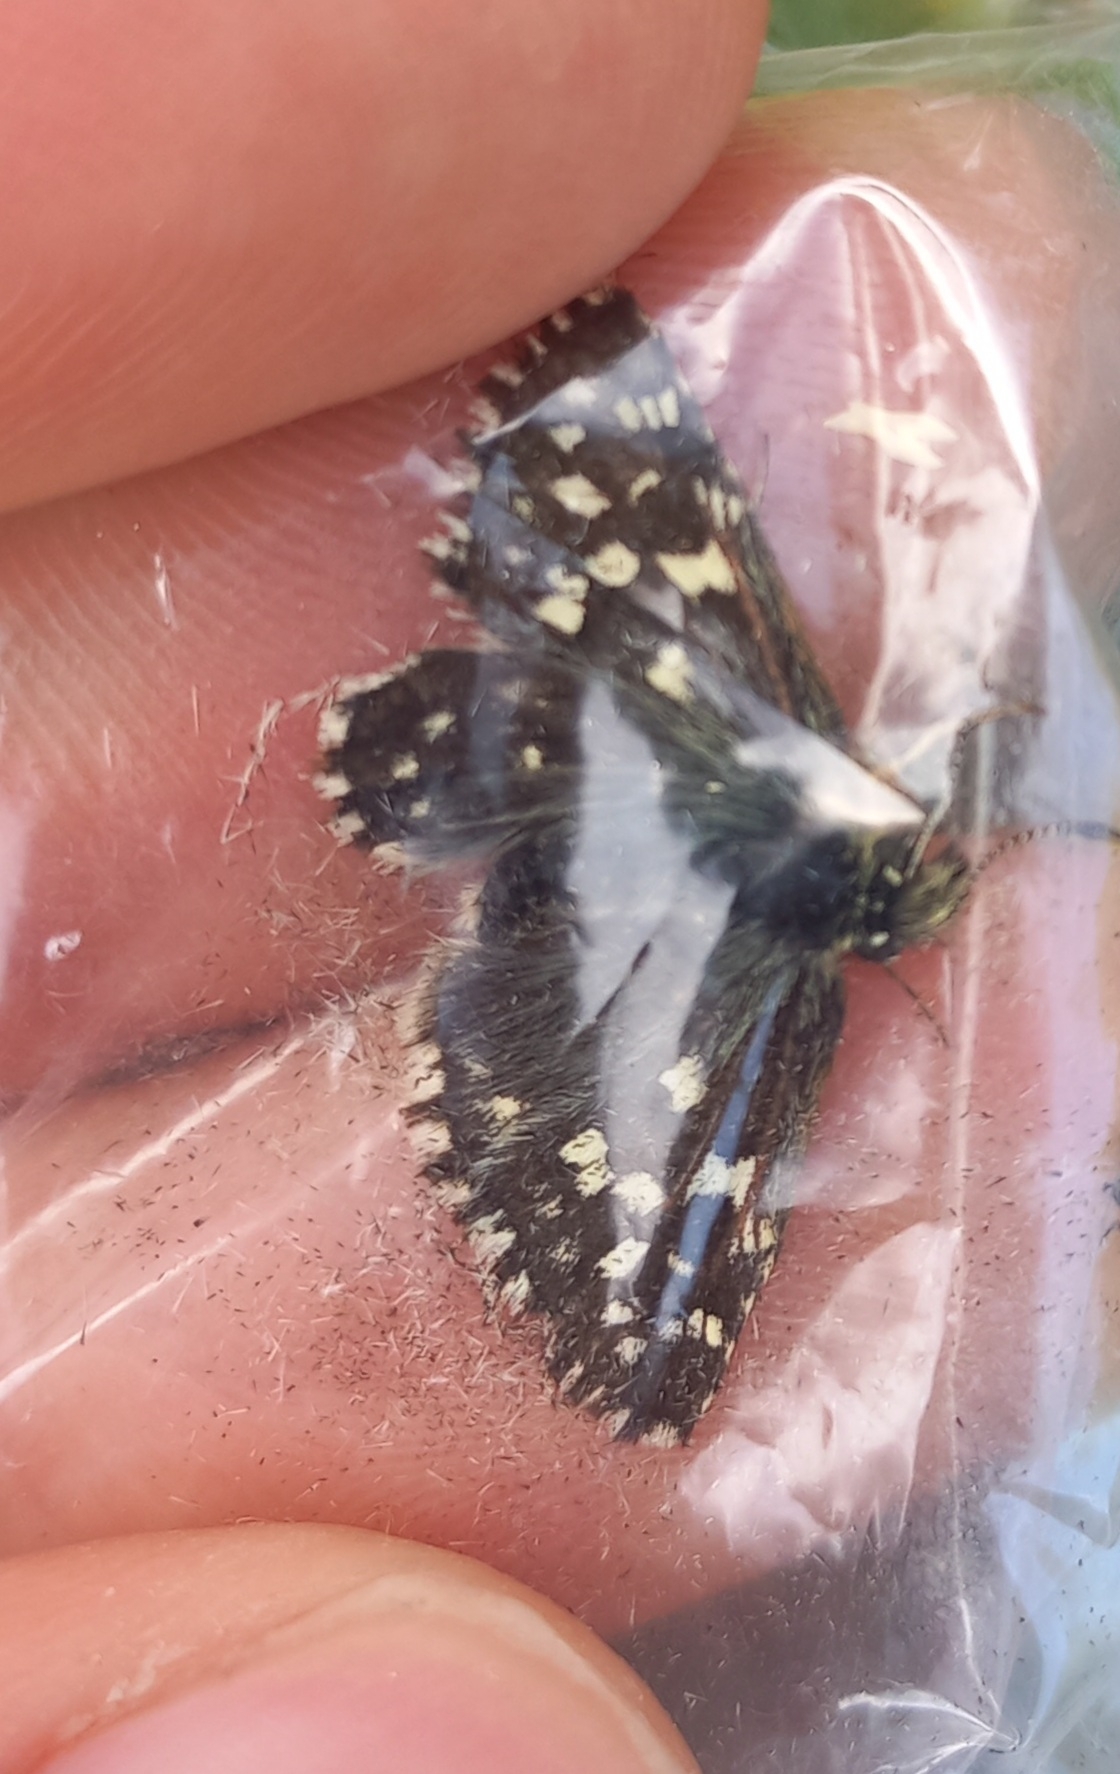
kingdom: Animalia
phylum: Arthropoda
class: Insecta
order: Lepidoptera
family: Hesperiidae
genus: Pyrgus
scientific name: Pyrgus malvae
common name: Grizzled skipper
